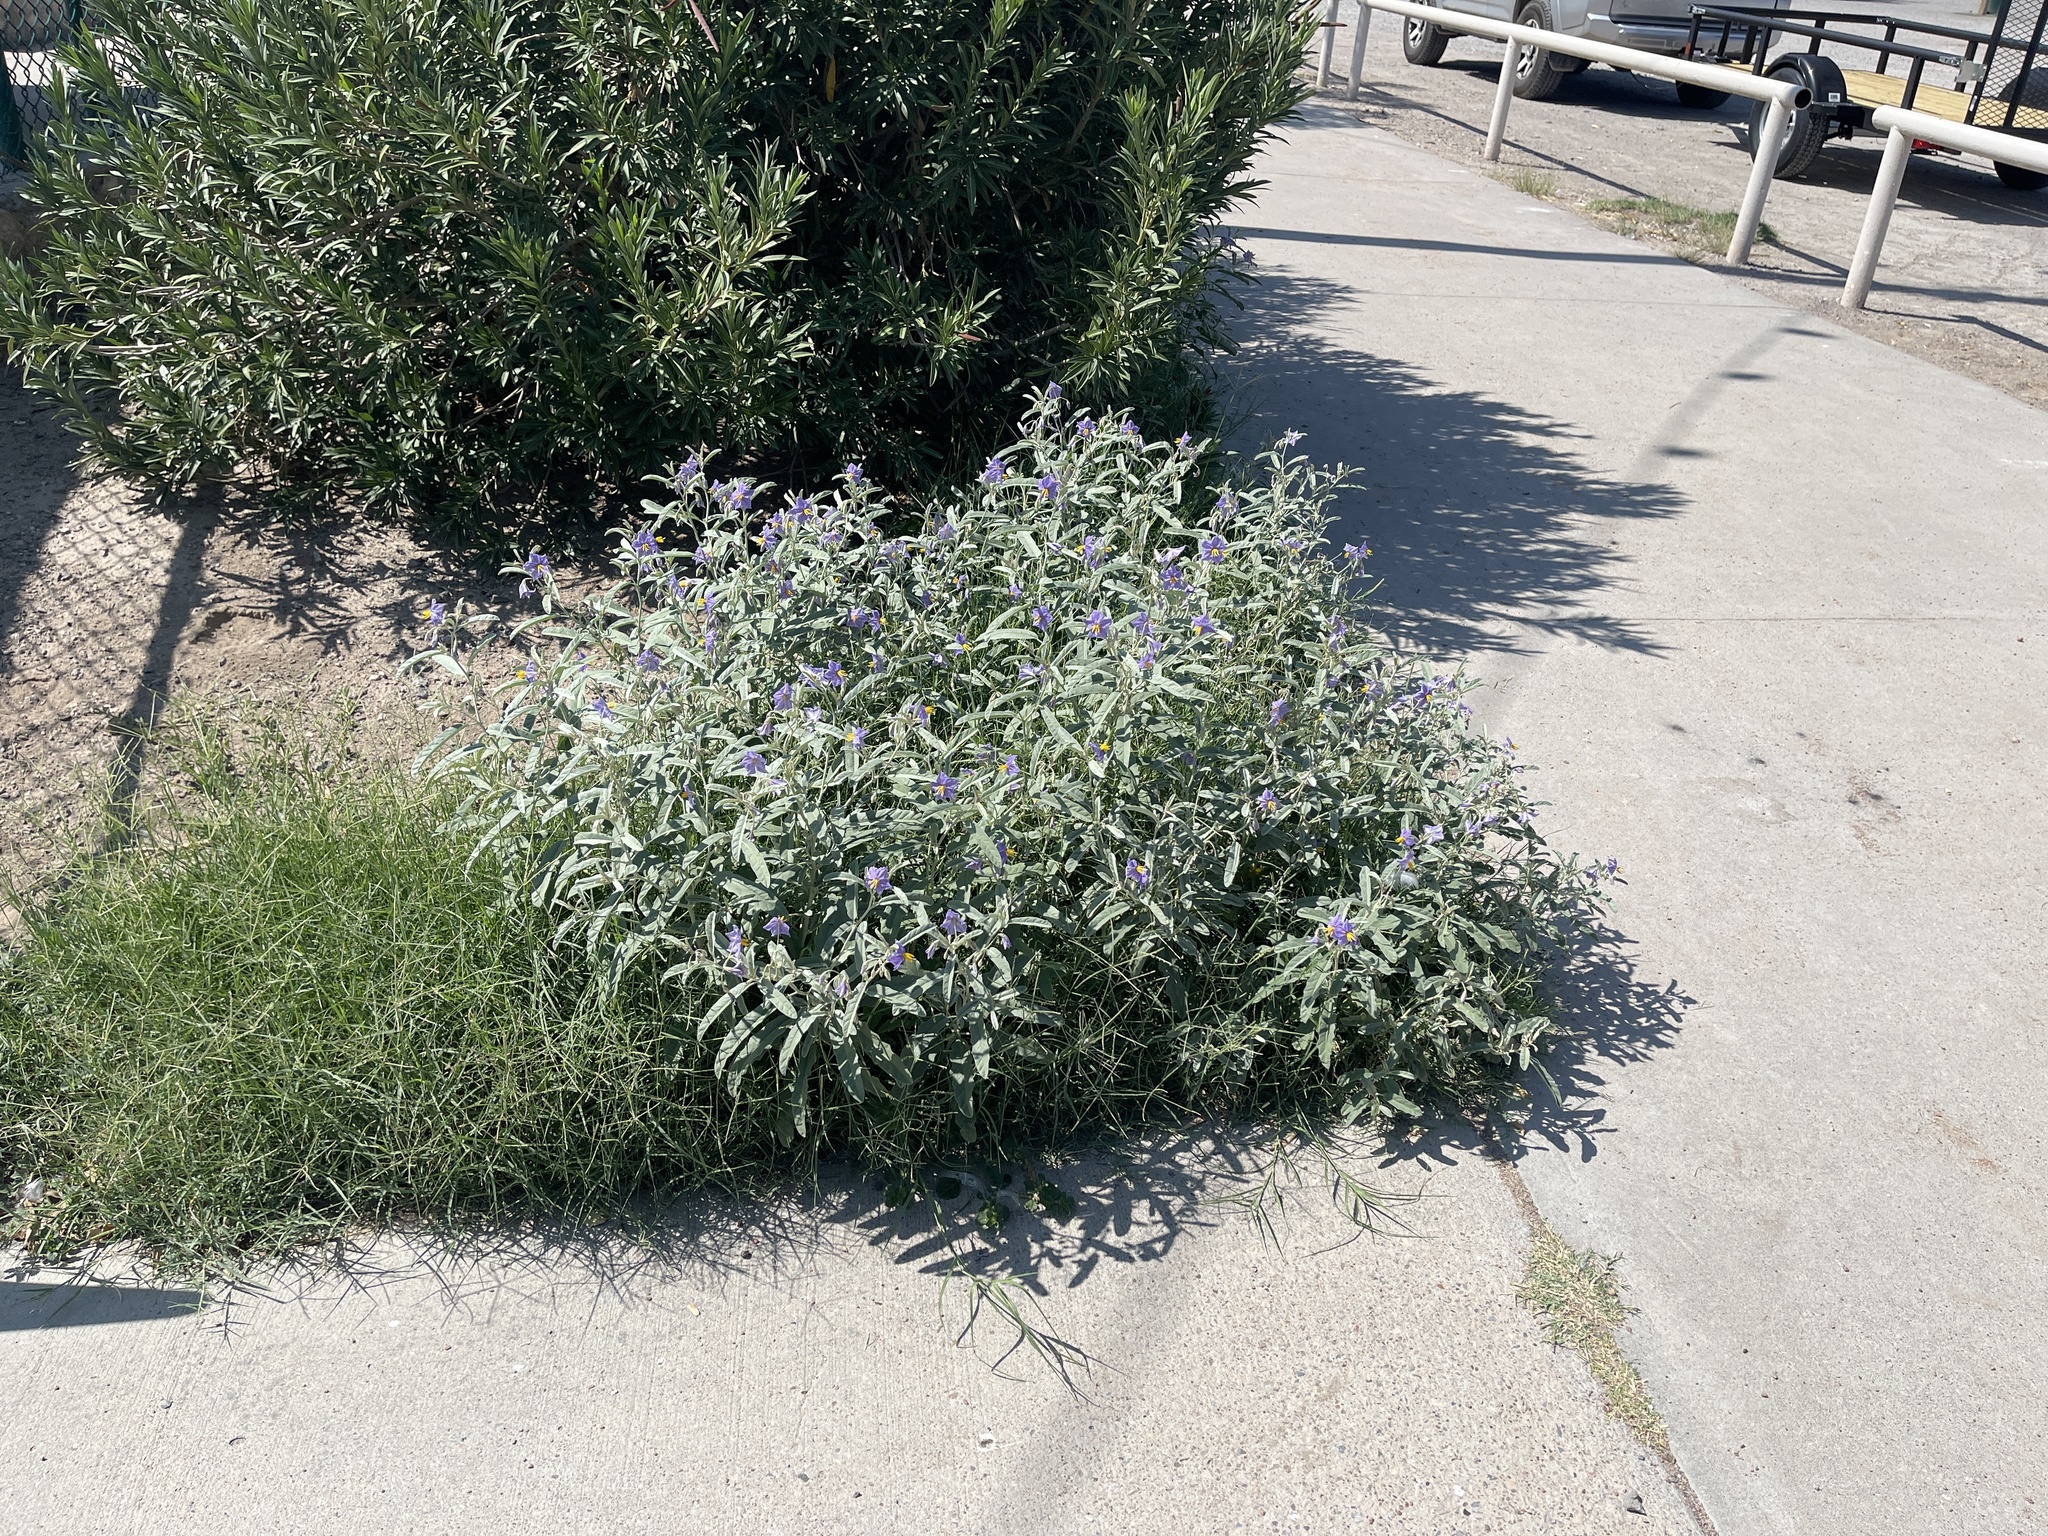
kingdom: Plantae
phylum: Tracheophyta
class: Magnoliopsida
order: Solanales
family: Solanaceae
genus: Solanum
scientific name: Solanum elaeagnifolium
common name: Silverleaf nightshade
